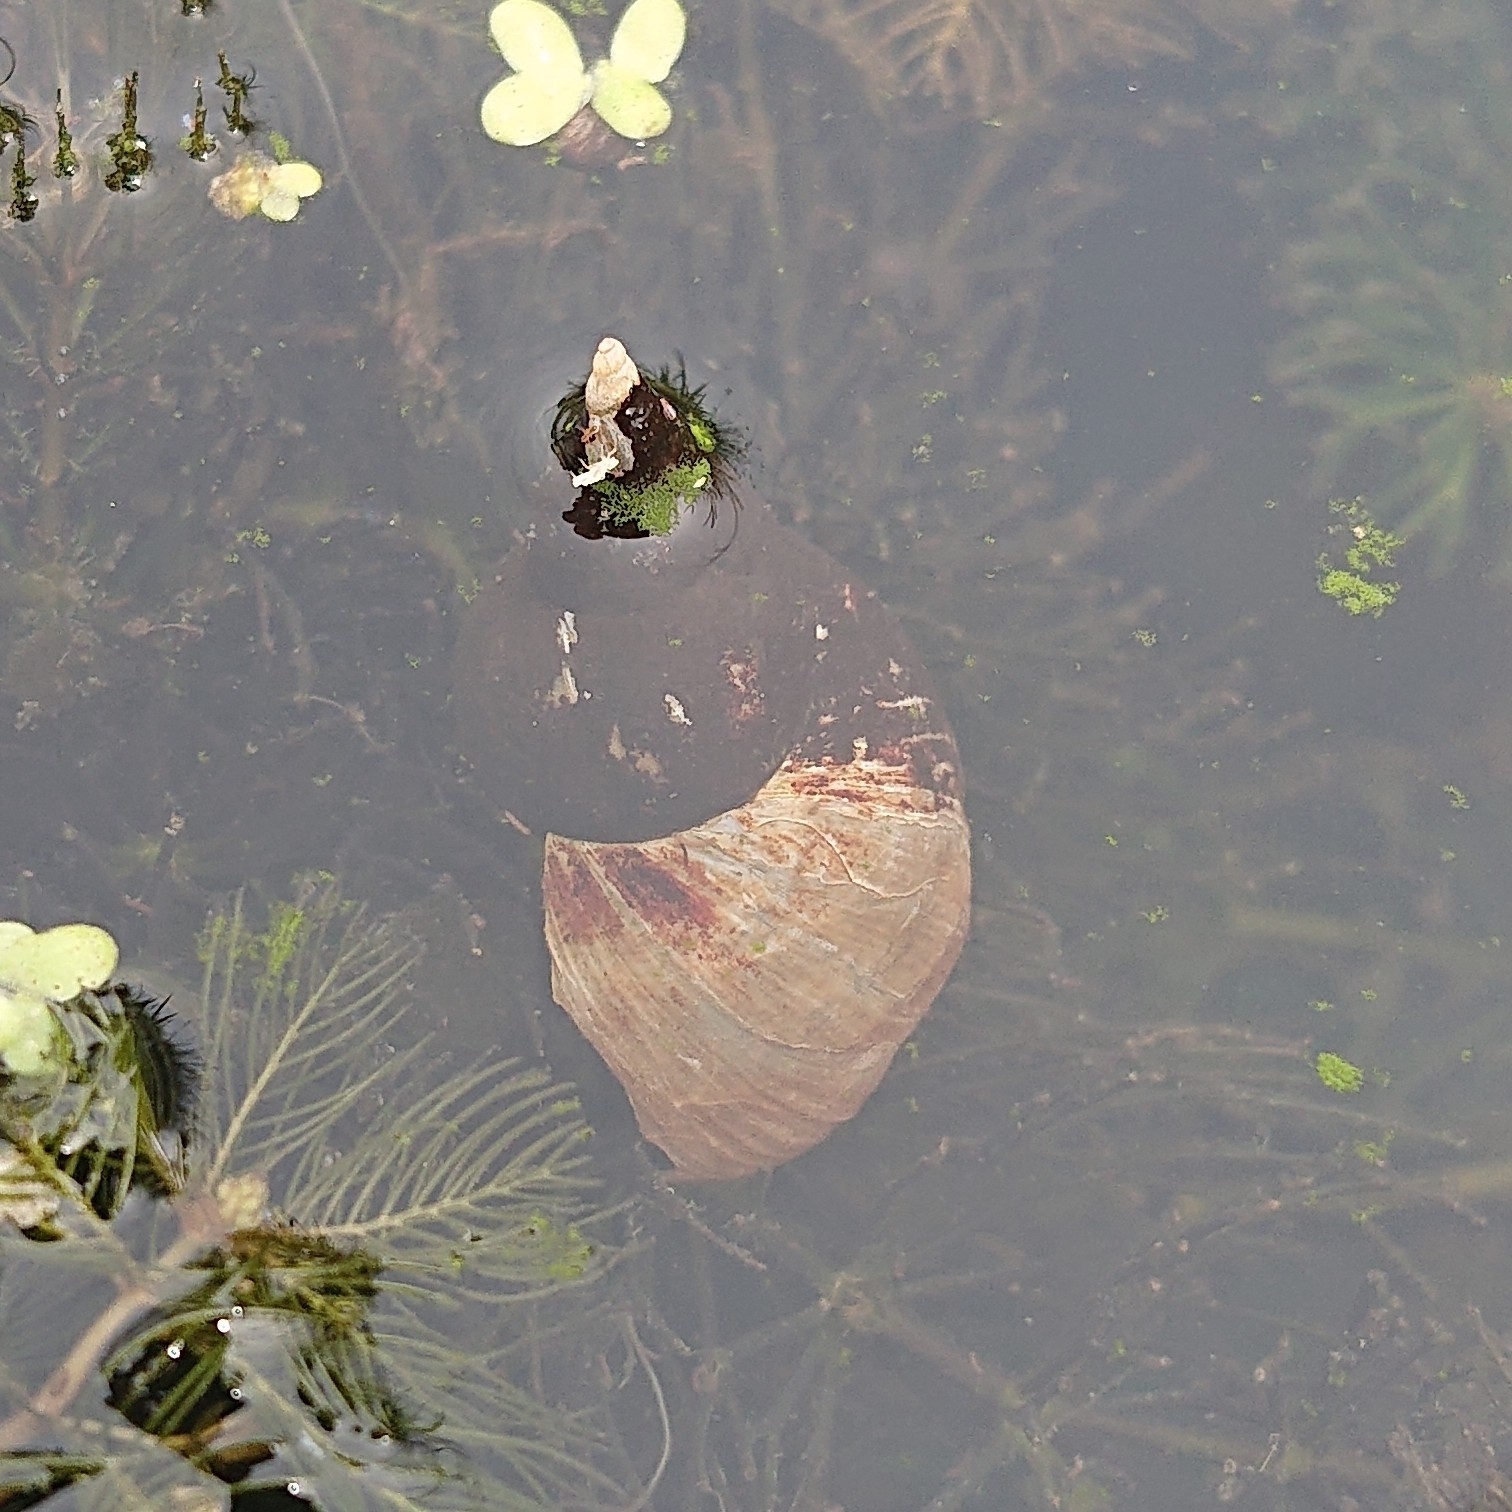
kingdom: Animalia
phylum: Mollusca
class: Gastropoda
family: Lymnaeidae
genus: Lymnaea
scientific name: Lymnaea stagnalis
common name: Great pond snail
